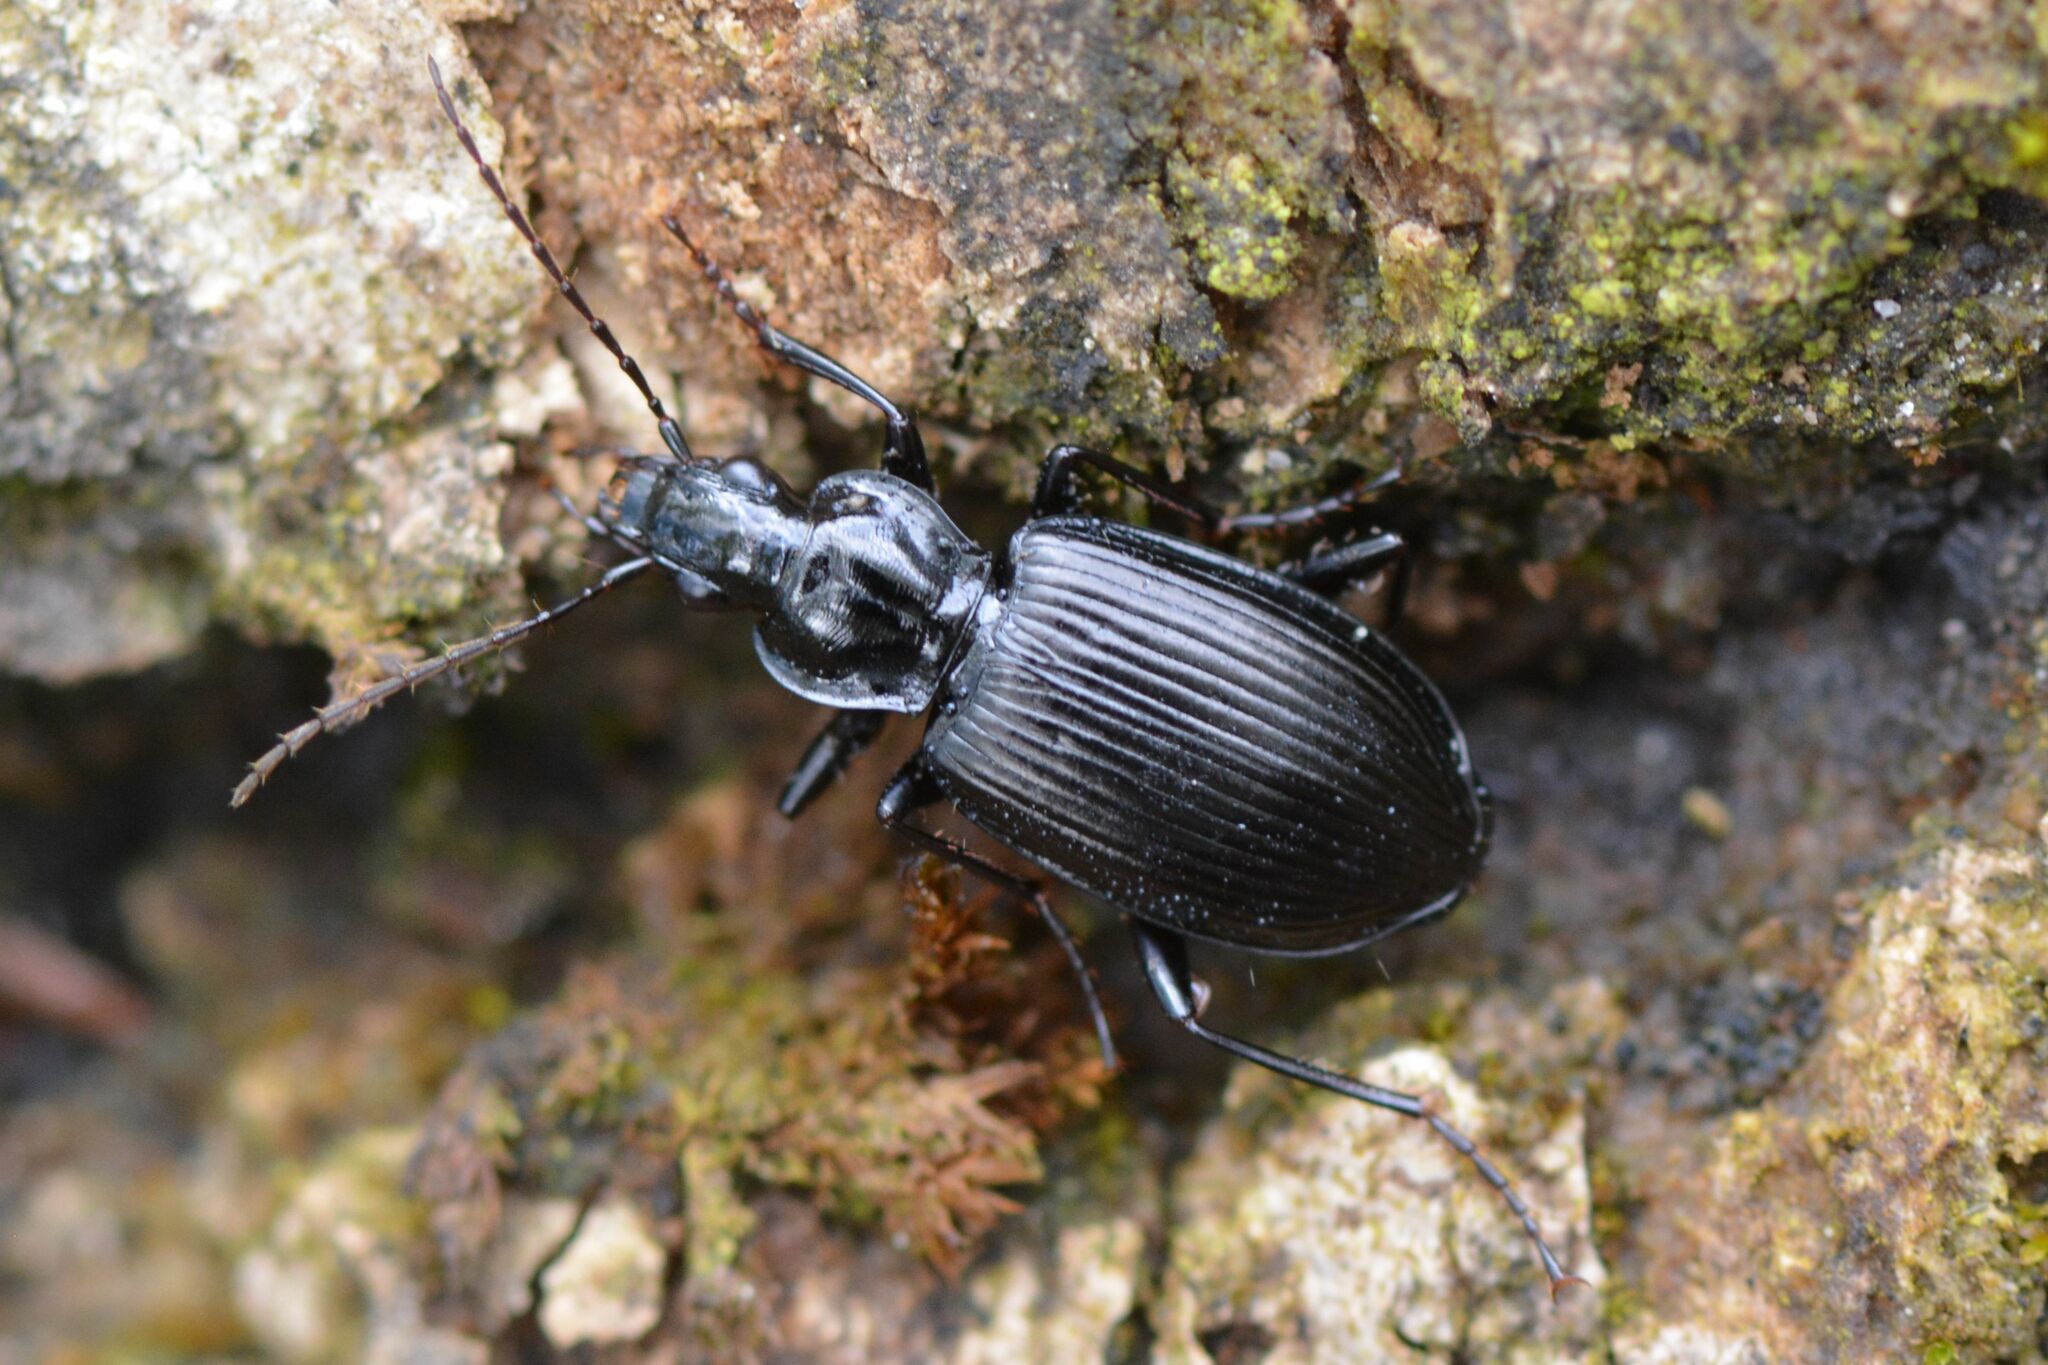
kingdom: Animalia
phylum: Arthropoda
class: Insecta
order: Coleoptera
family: Carabidae
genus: Platynus
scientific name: Platynus assimilis
